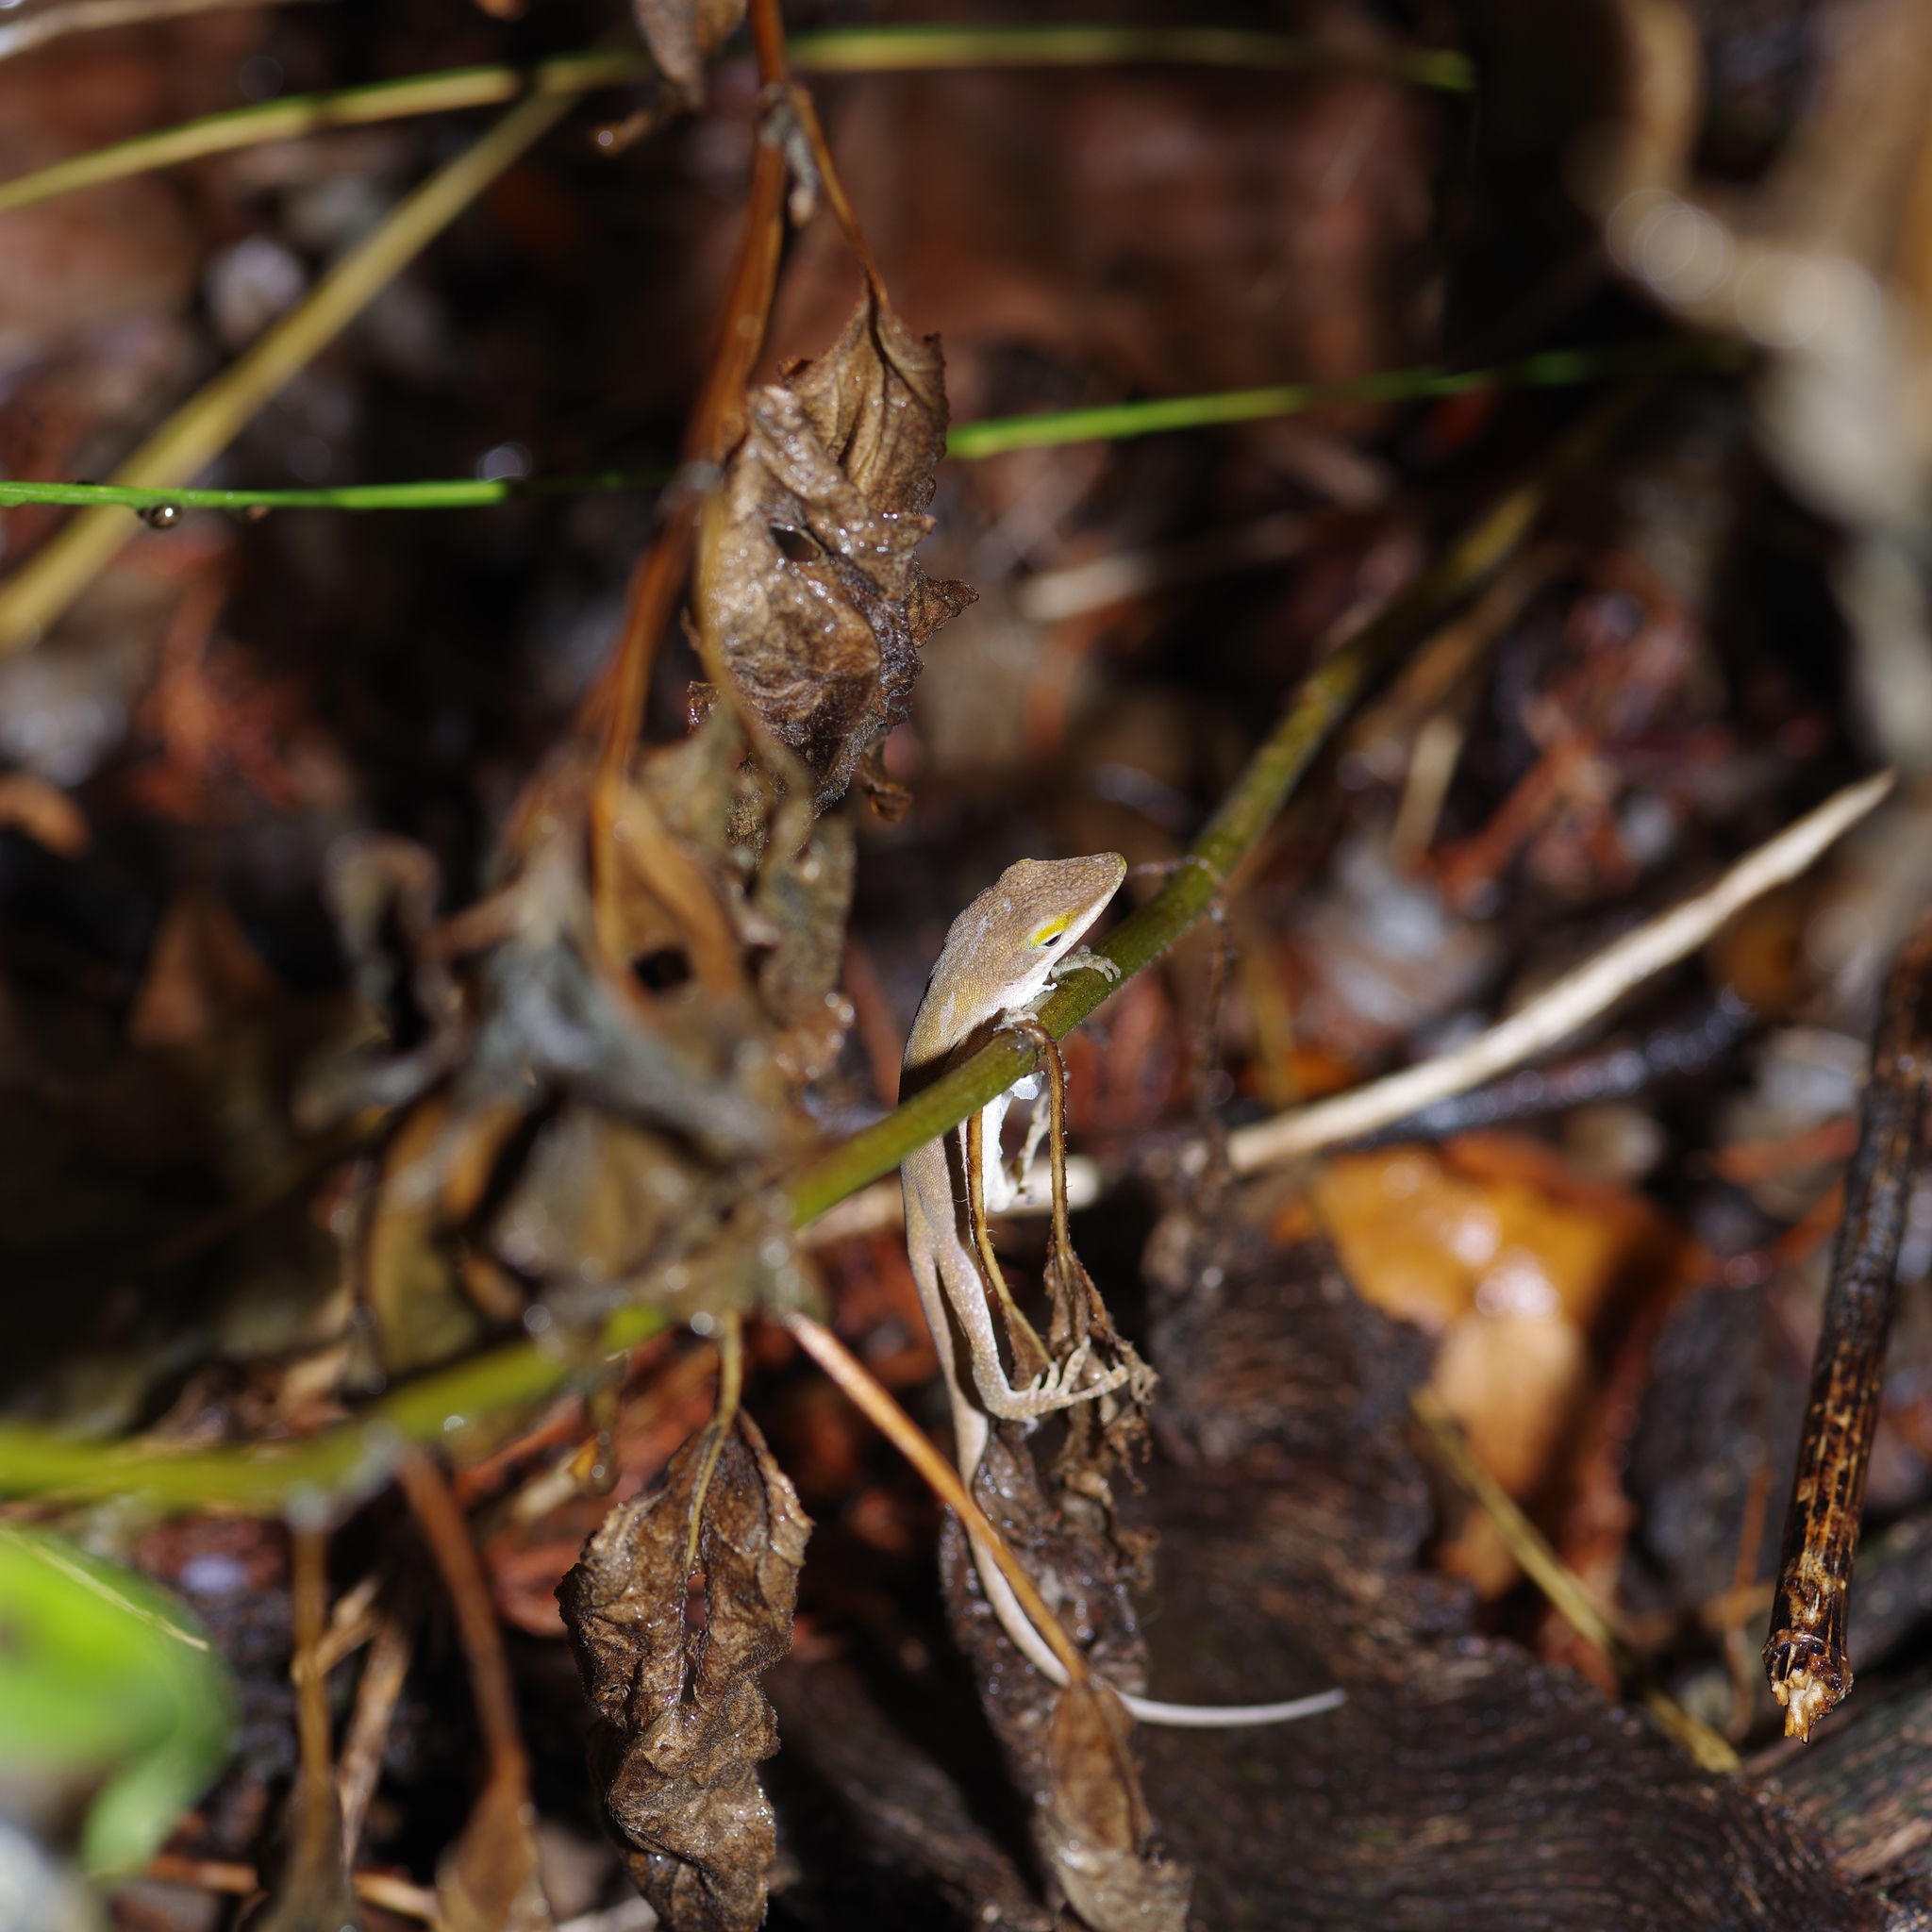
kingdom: Animalia
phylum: Chordata
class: Squamata
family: Dactyloidae
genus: Anolis
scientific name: Anolis carolinensis
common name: Green anole
